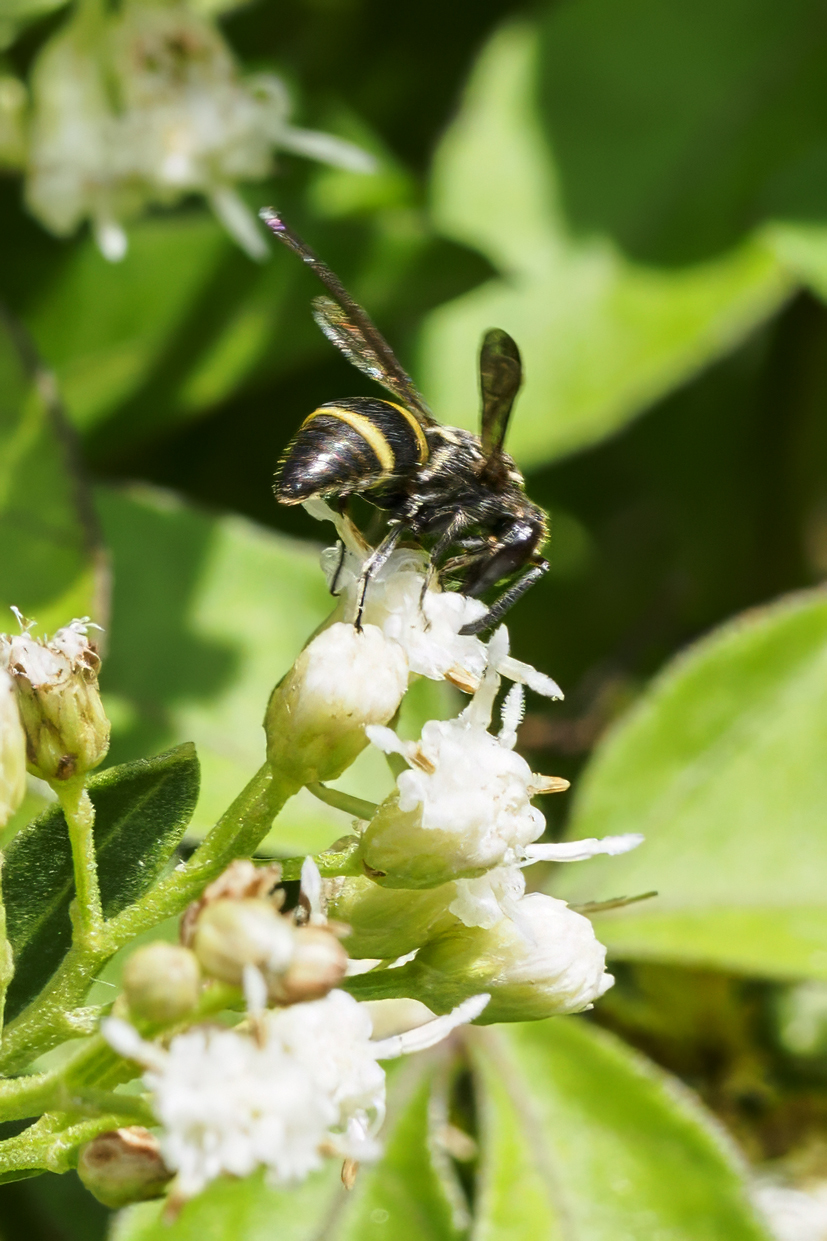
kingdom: Animalia
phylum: Arthropoda
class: Insecta
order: Hymenoptera
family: Eumenidae
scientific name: Eumenidae
